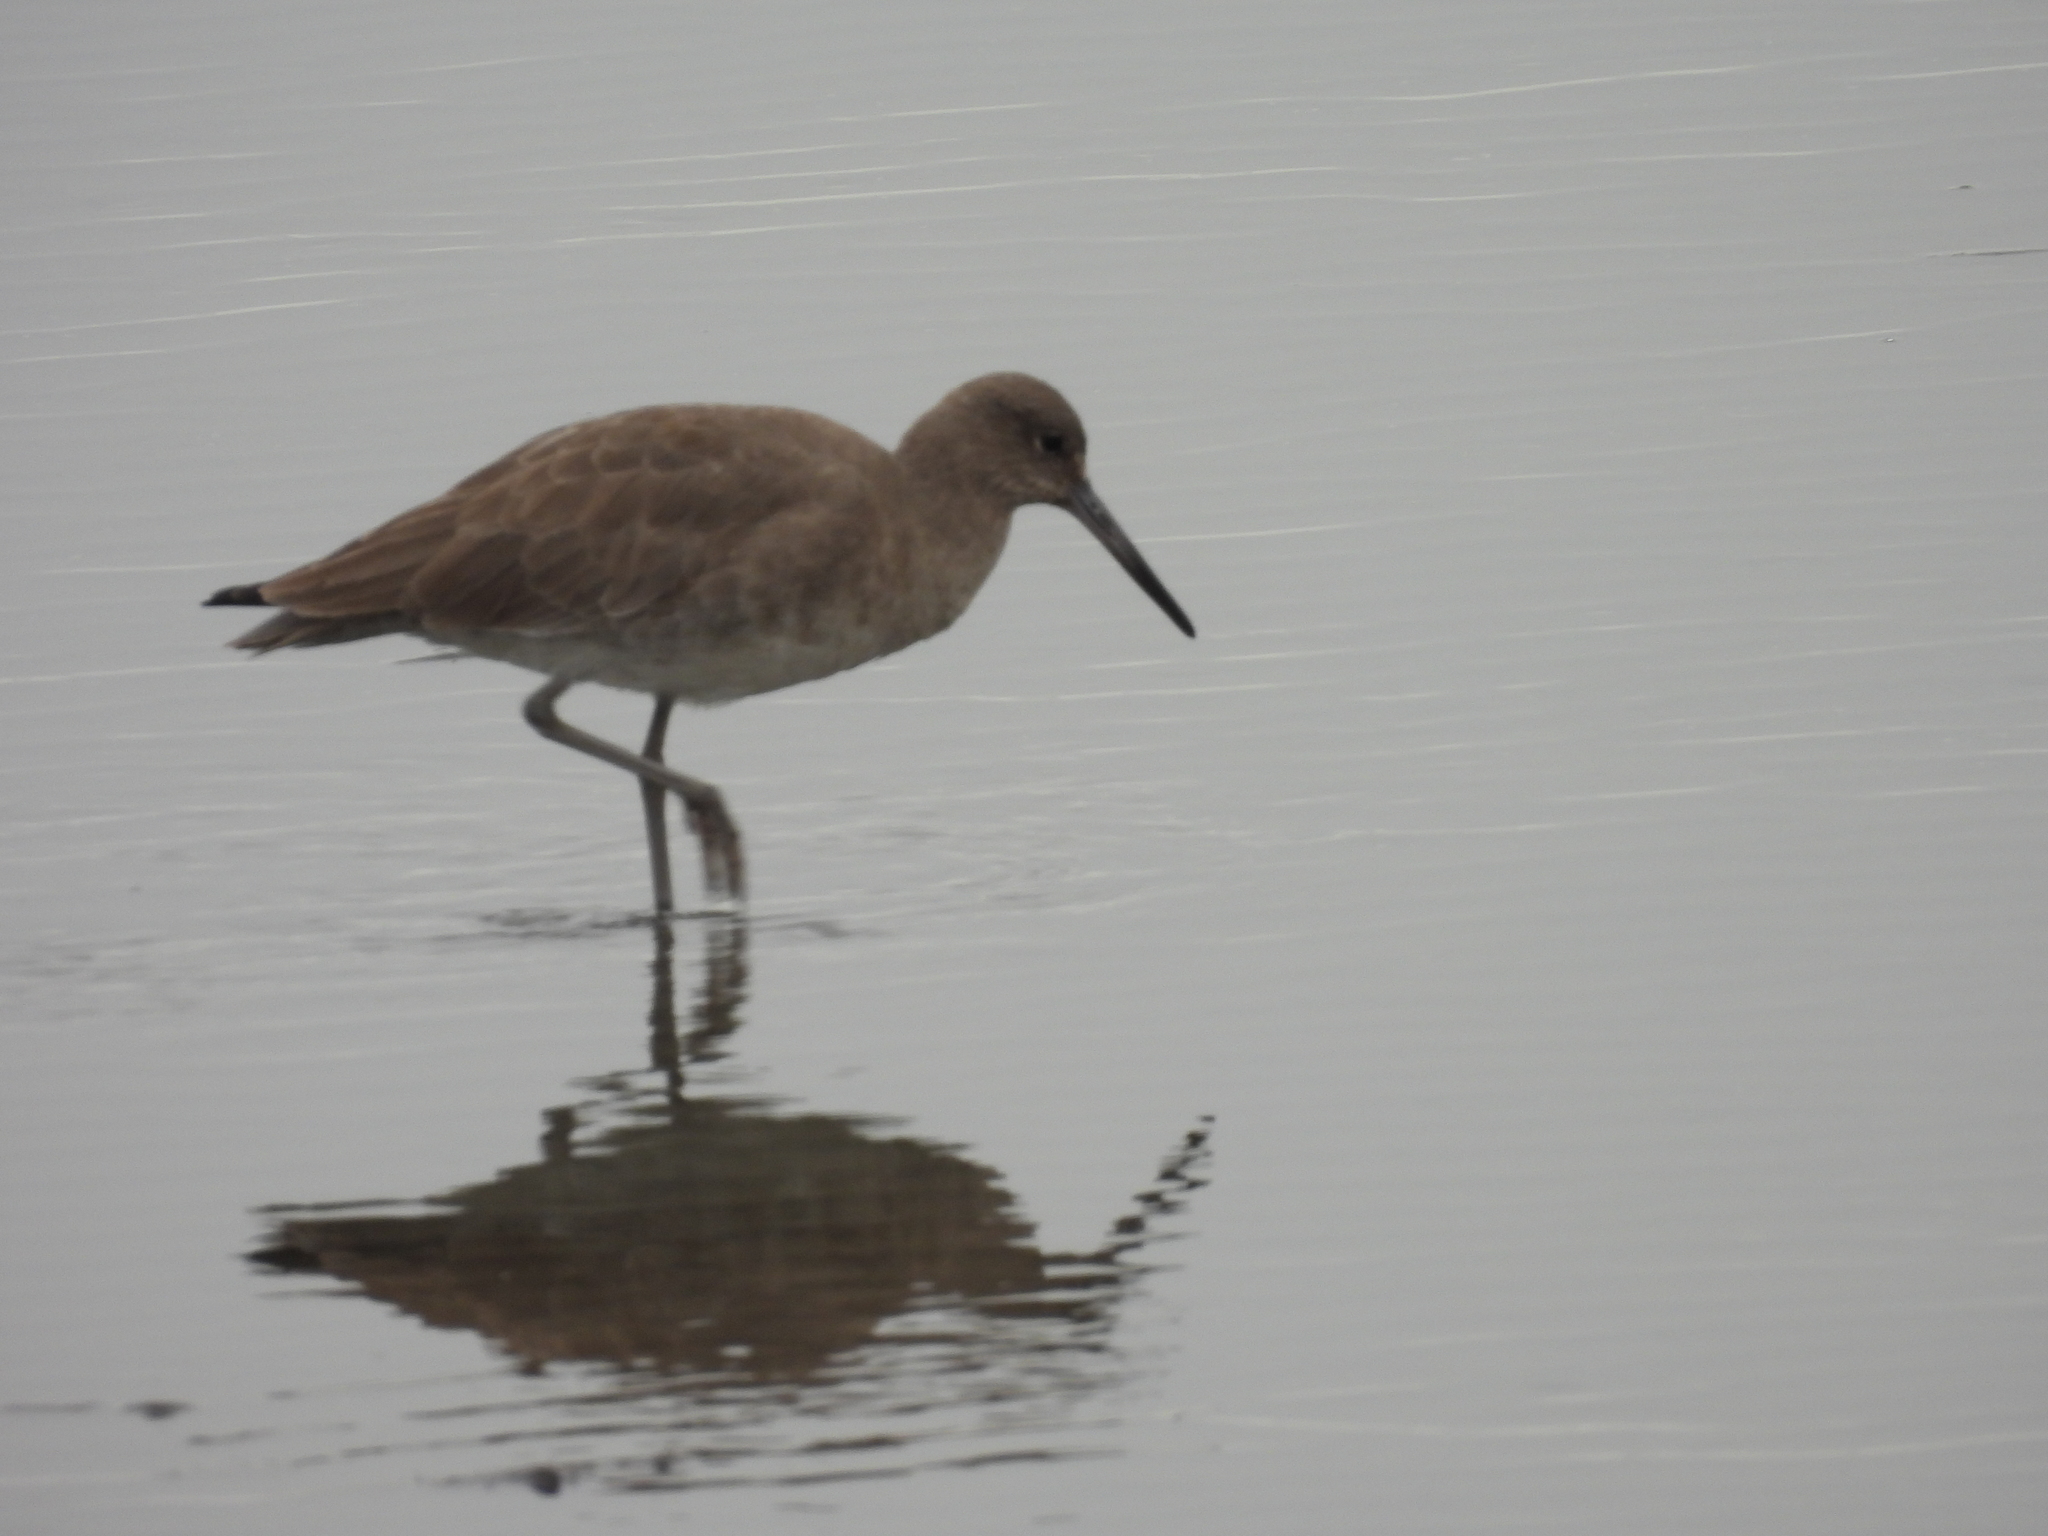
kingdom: Animalia
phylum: Chordata
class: Aves
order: Charadriiformes
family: Scolopacidae
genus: Tringa
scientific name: Tringa semipalmata
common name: Willet
